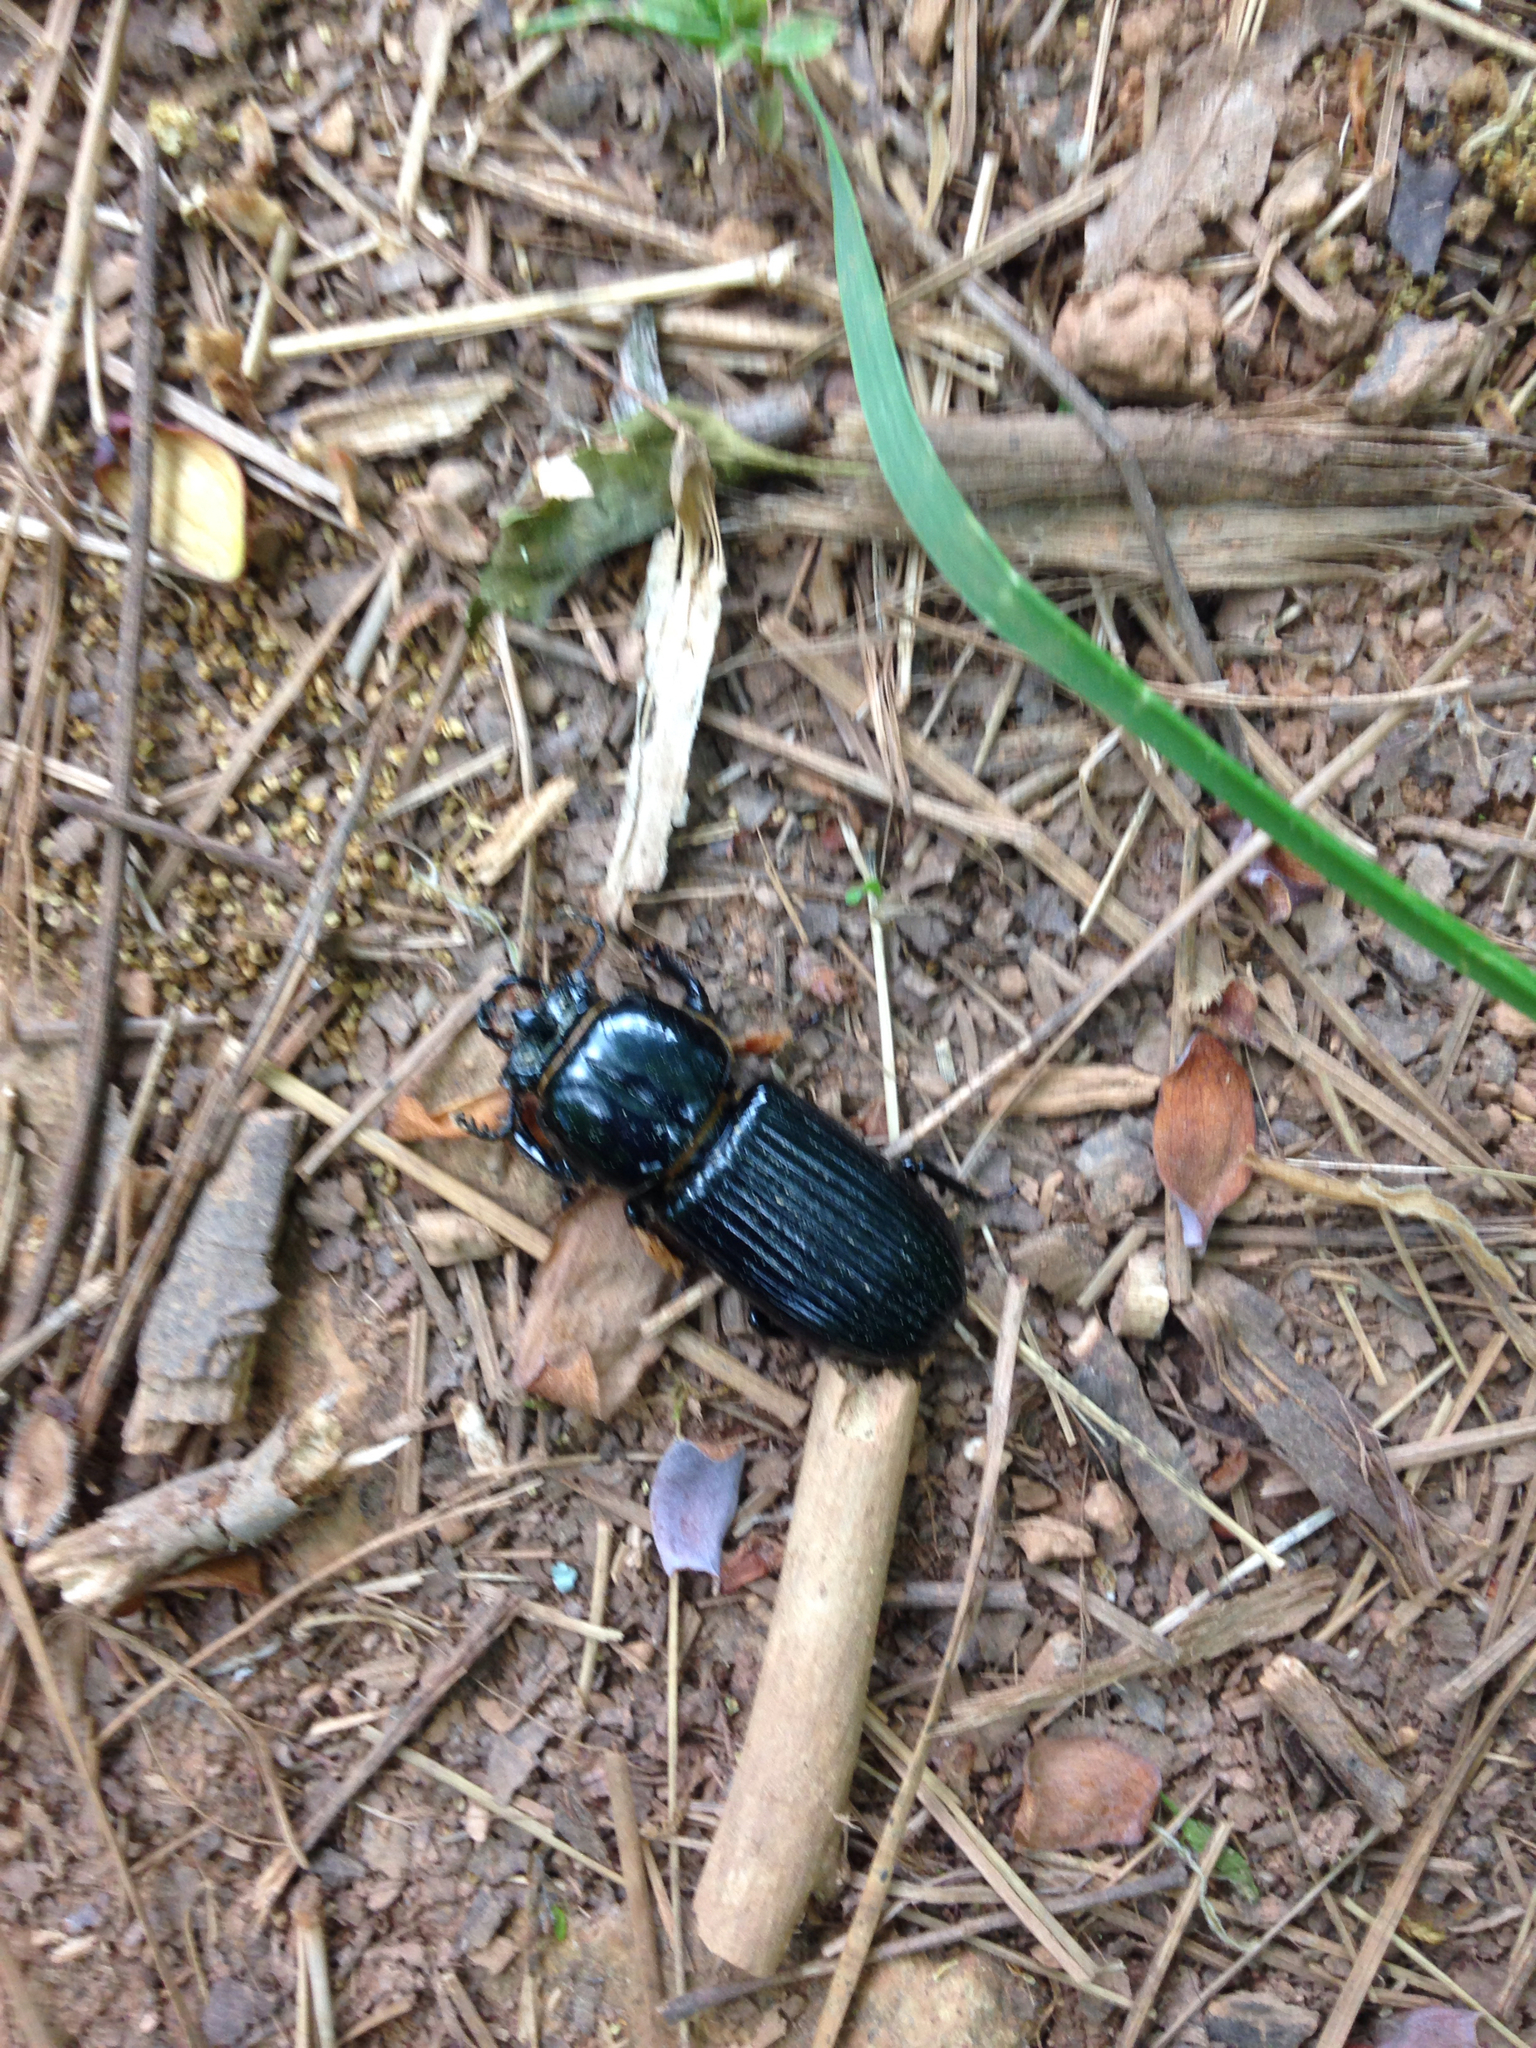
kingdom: Animalia
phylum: Arthropoda
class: Insecta
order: Coleoptera
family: Passalidae
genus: Odontotaenius
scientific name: Odontotaenius disjunctus
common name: Patent leather beetle
